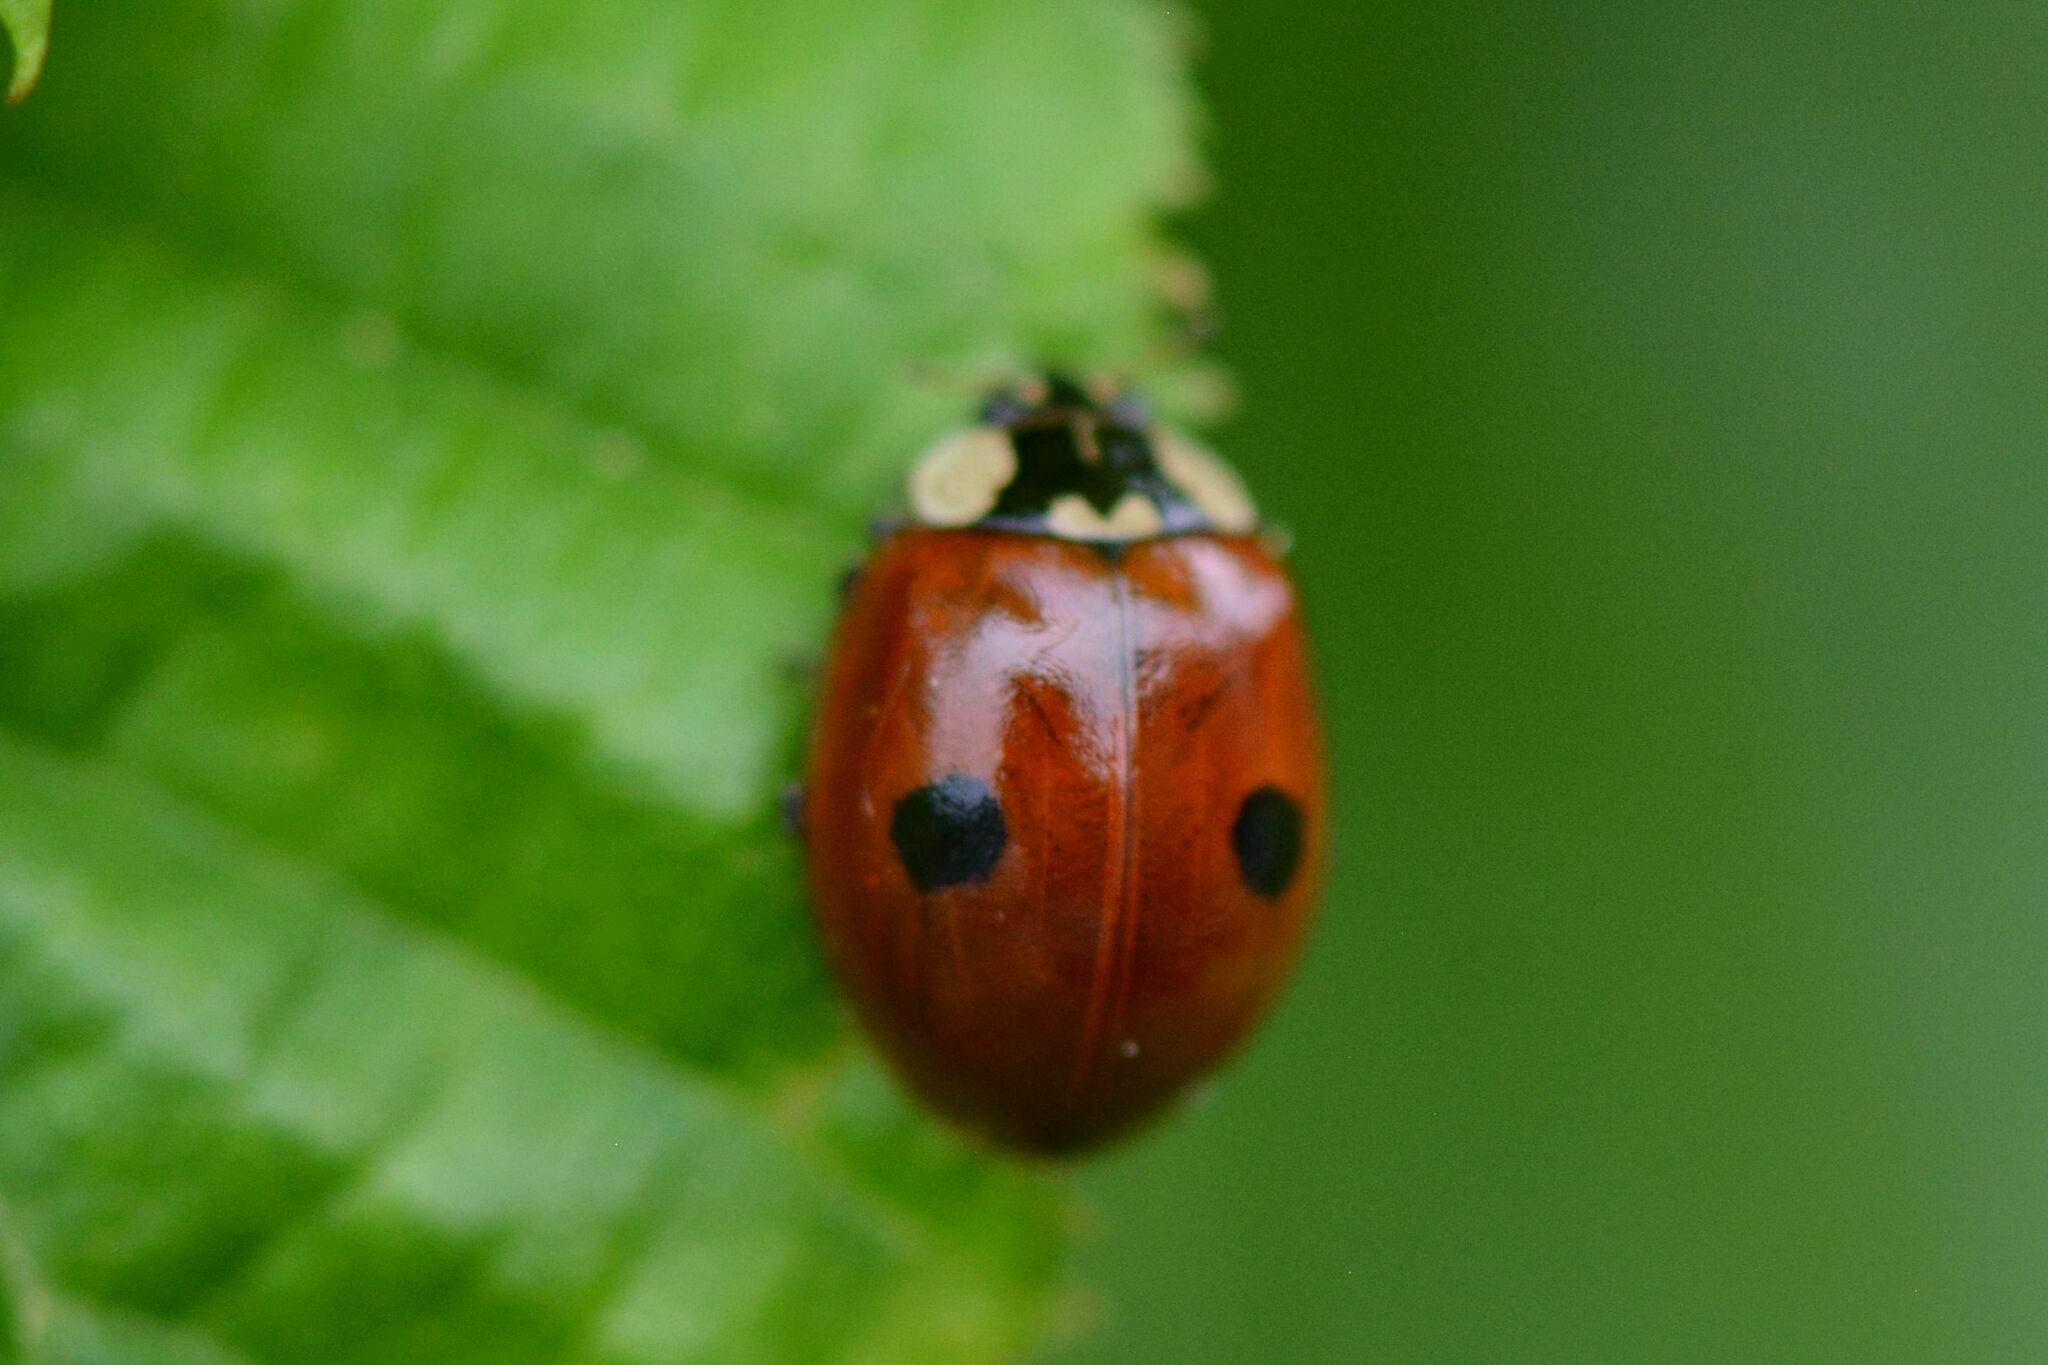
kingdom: Animalia
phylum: Arthropoda
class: Insecta
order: Coleoptera
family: Coccinellidae
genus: Adalia
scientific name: Adalia bipunctata
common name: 2-spot ladybird
